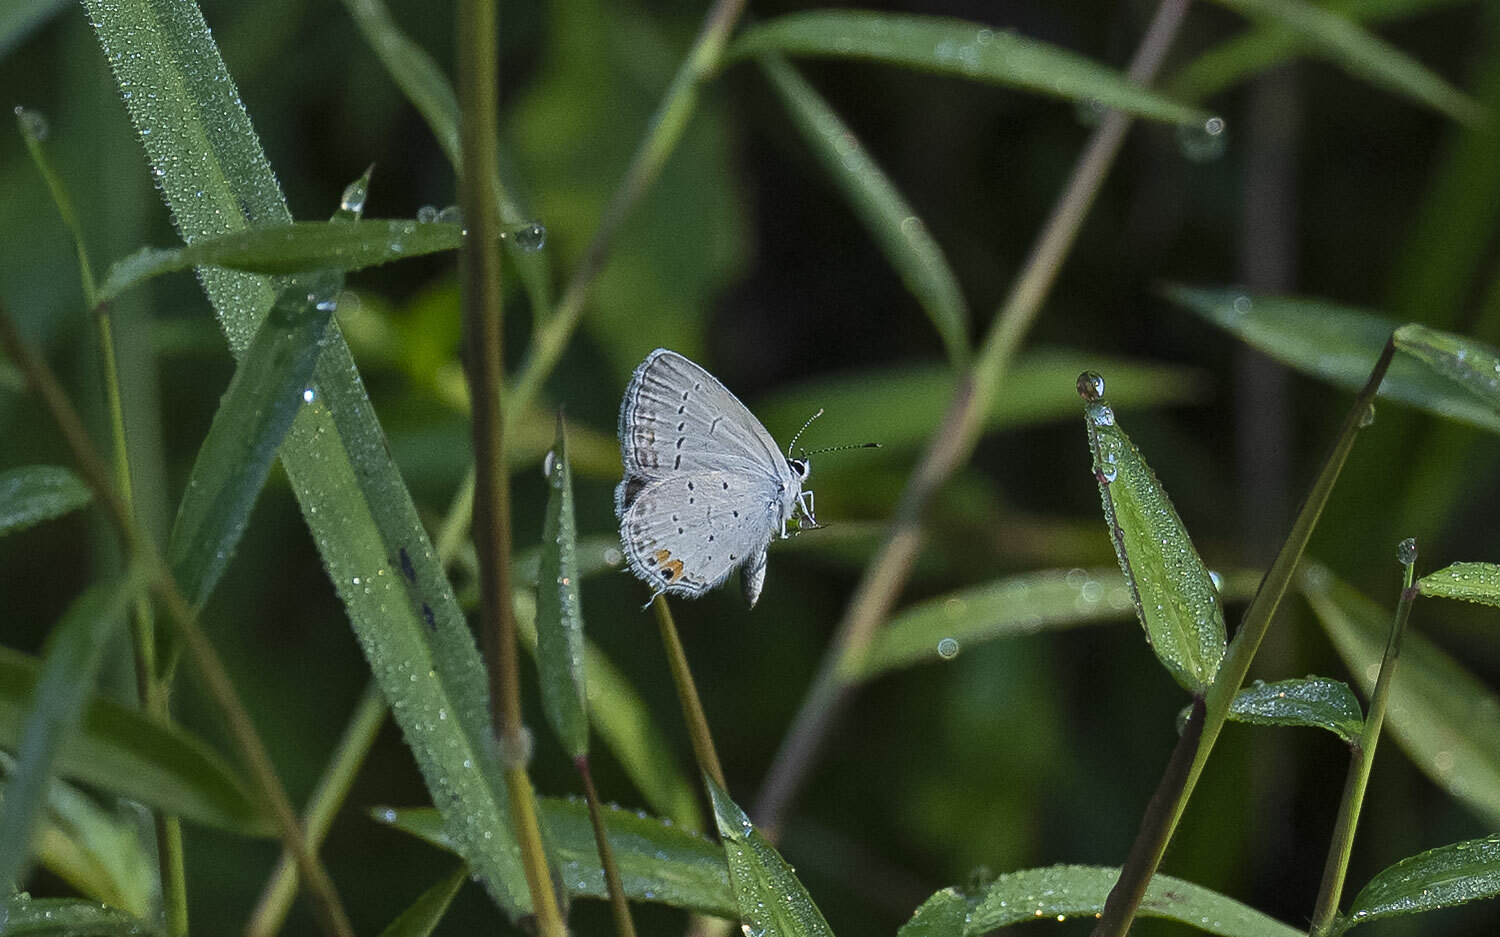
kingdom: Animalia
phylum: Arthropoda
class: Insecta
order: Lepidoptera
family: Lycaenidae
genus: Elkalyce
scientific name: Elkalyce comyntas
